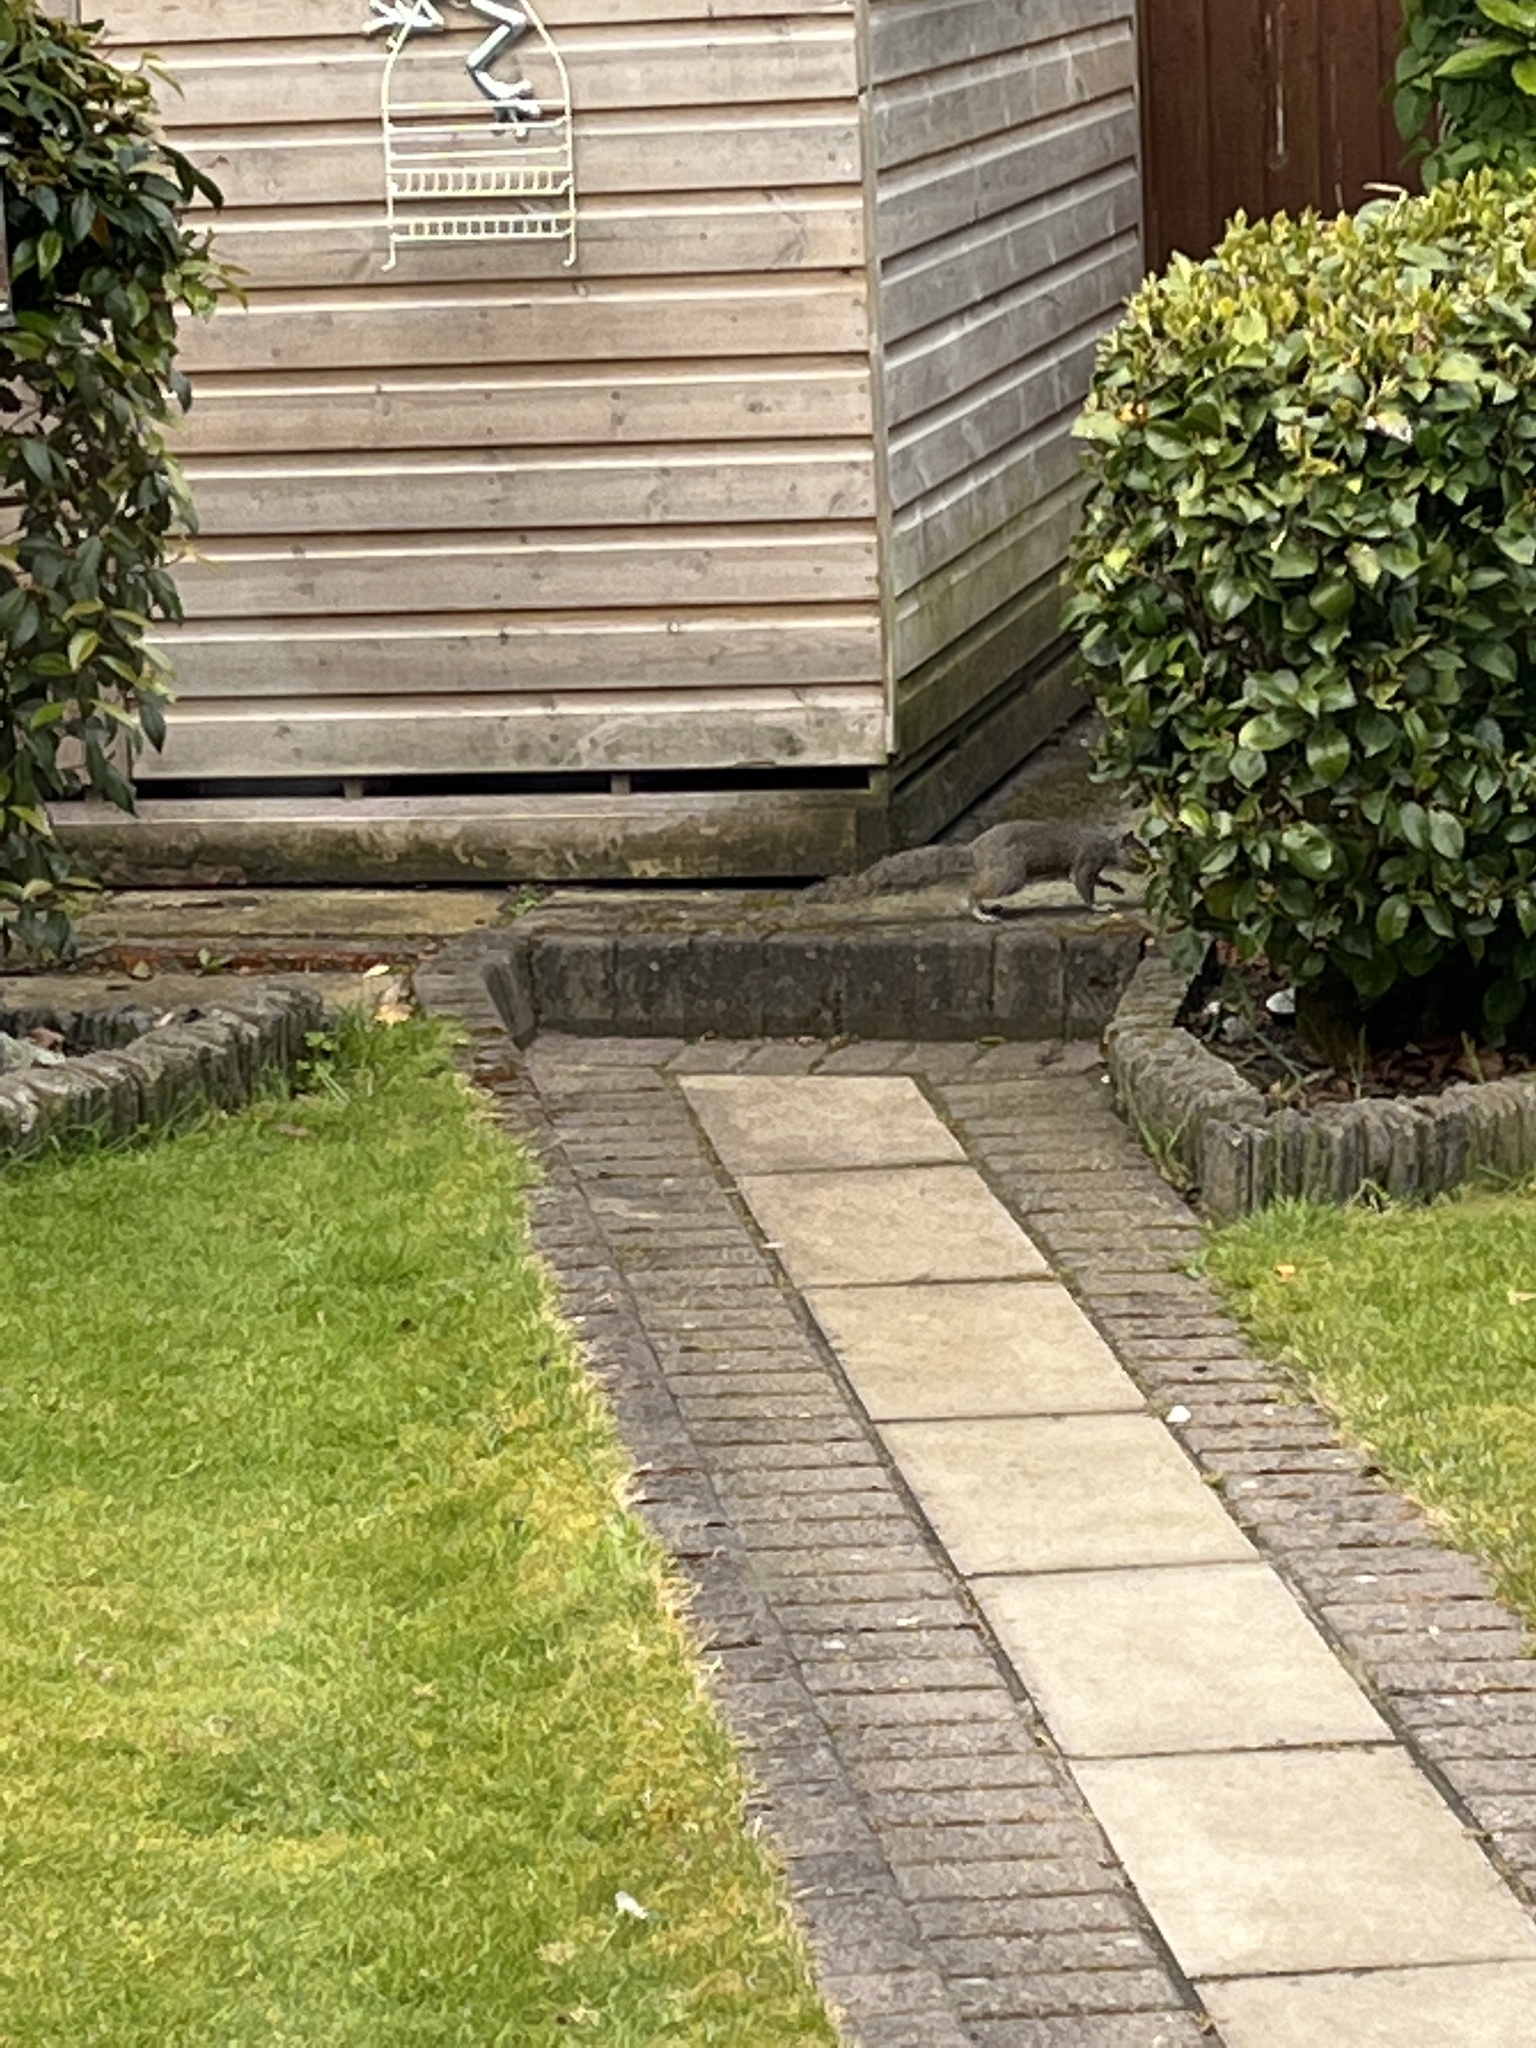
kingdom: Animalia
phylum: Chordata
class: Mammalia
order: Rodentia
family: Sciuridae
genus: Sciurus
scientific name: Sciurus carolinensis
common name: Eastern gray squirrel
